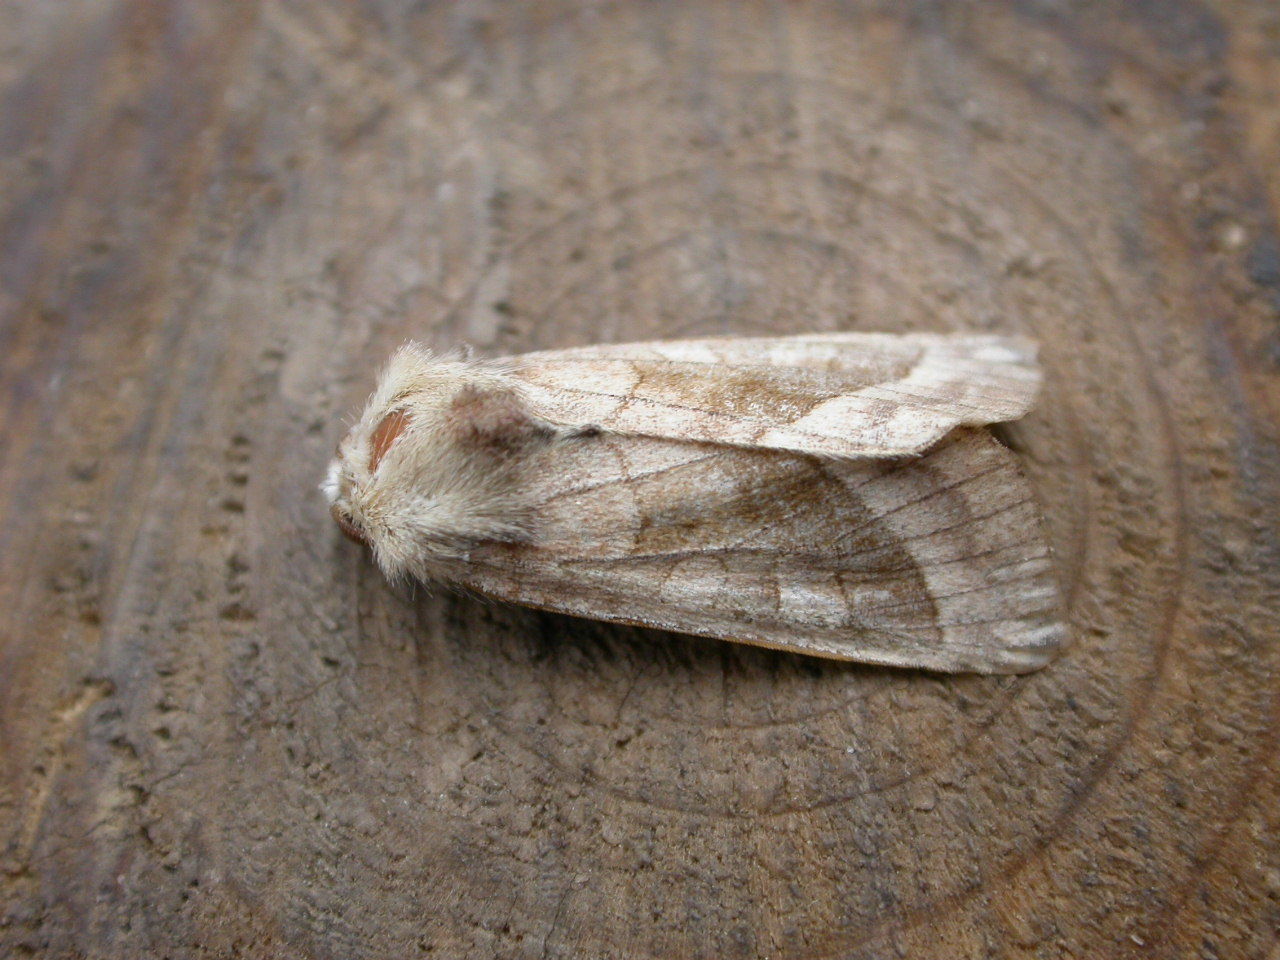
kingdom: Animalia
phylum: Arthropoda
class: Insecta
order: Lepidoptera
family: Noctuidae
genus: Hydraecia
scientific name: Hydraecia micacea
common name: Rosy rustic
